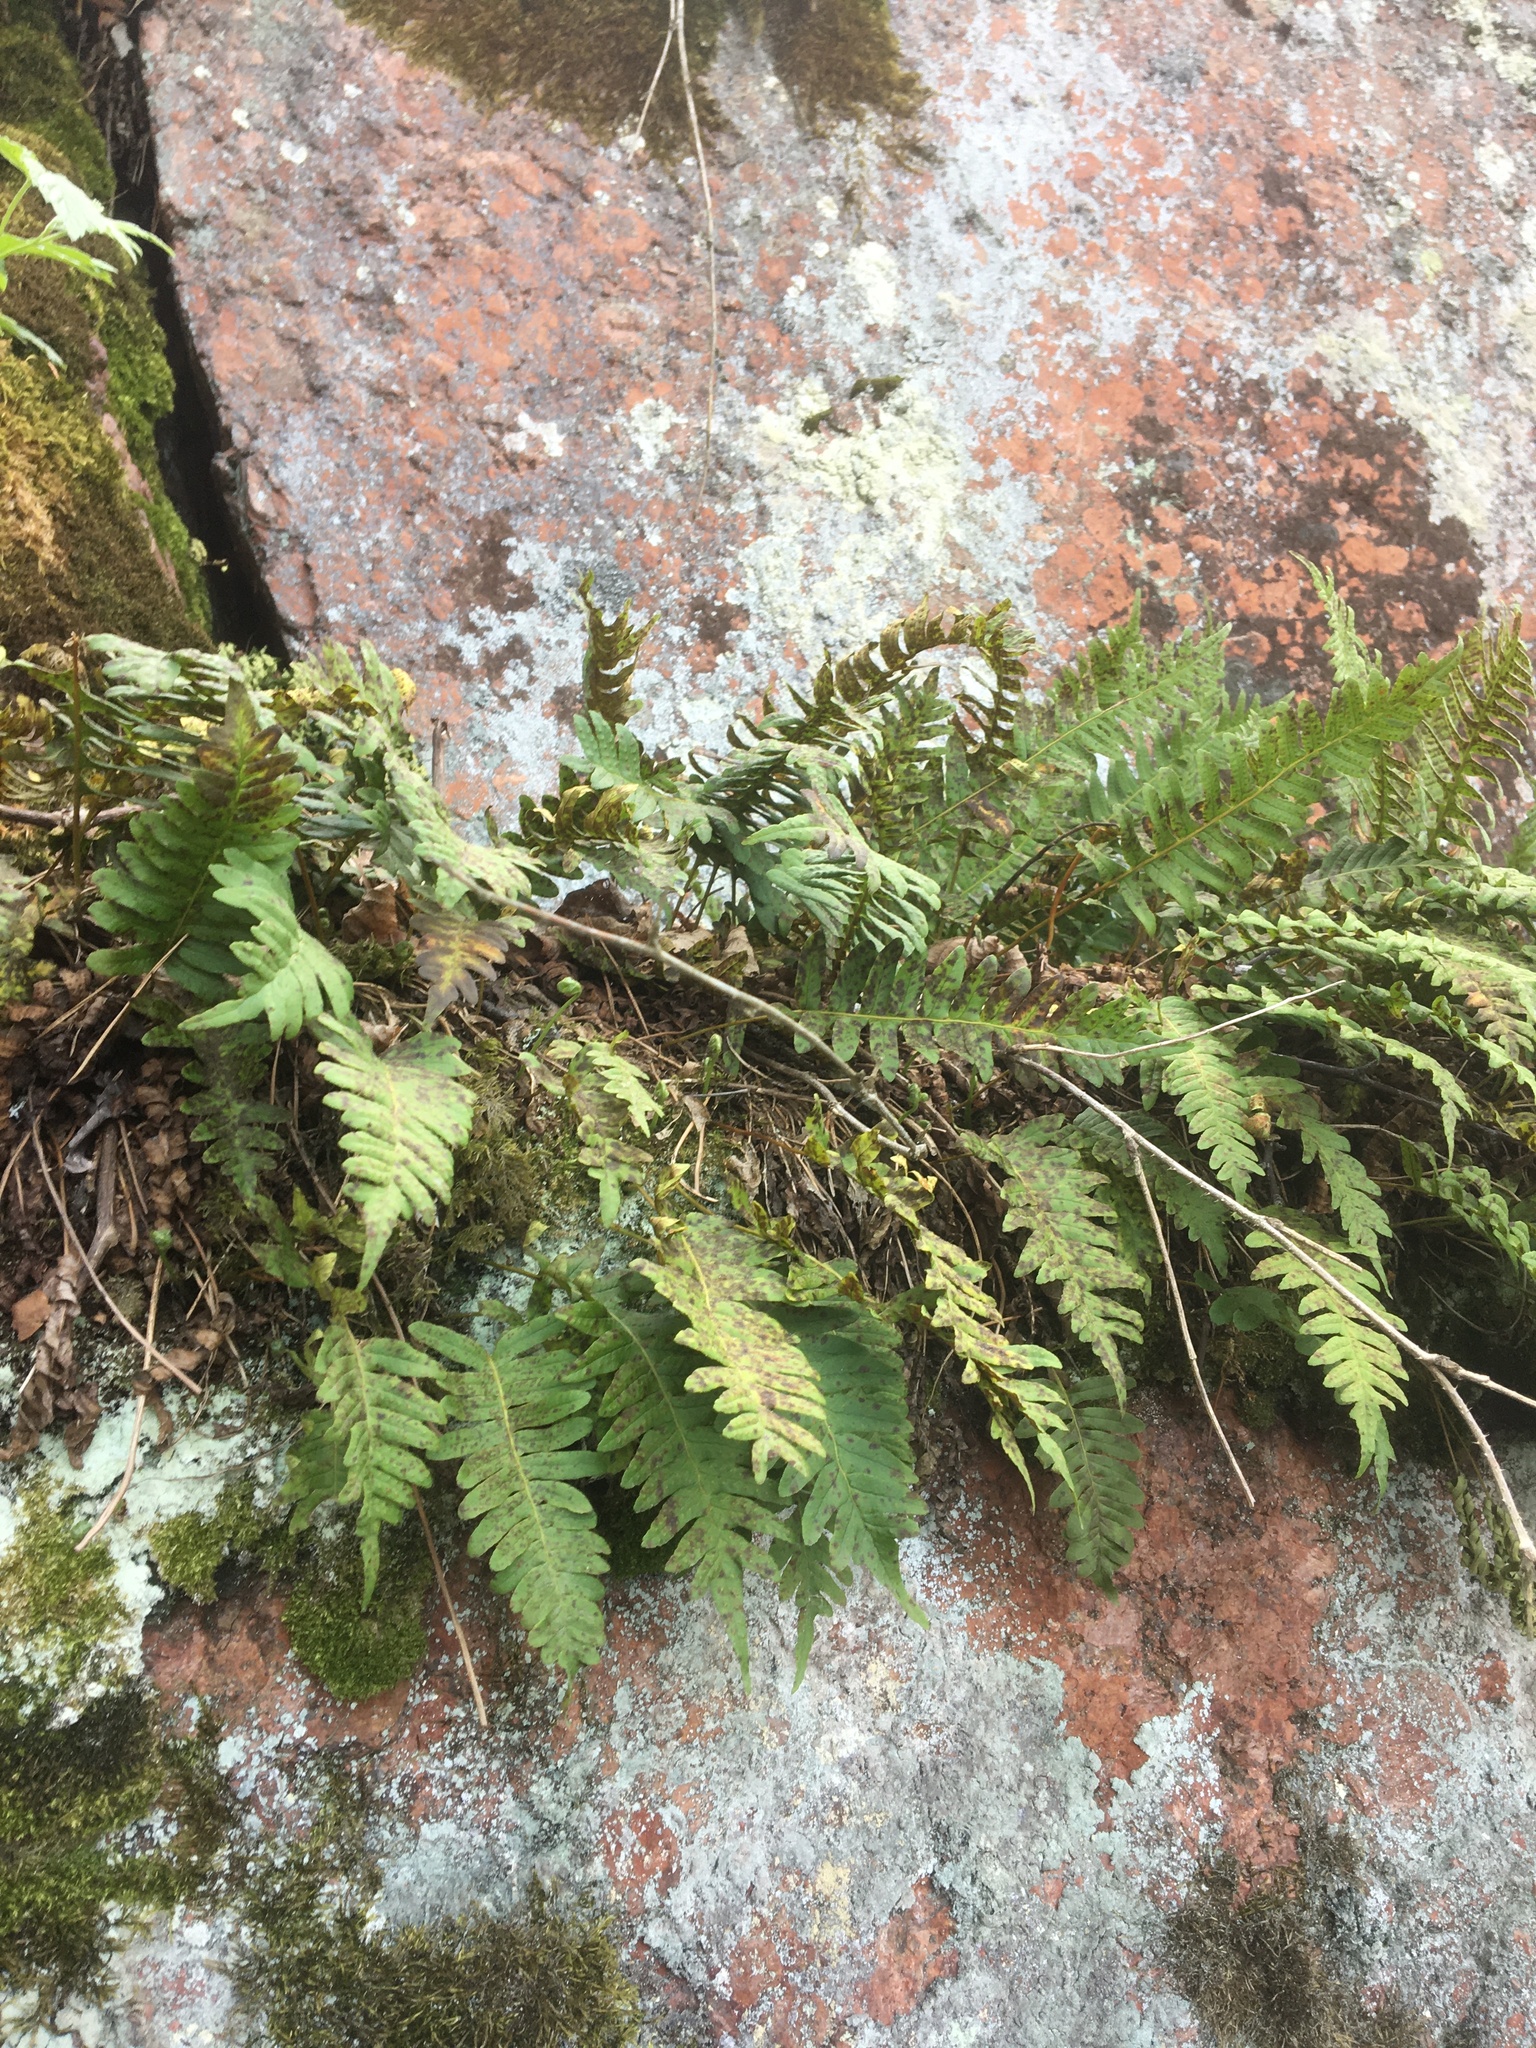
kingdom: Plantae
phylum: Tracheophyta
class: Polypodiopsida
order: Polypodiales
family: Polypodiaceae
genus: Polypodium
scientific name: Polypodium vulgare
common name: Common polypody
